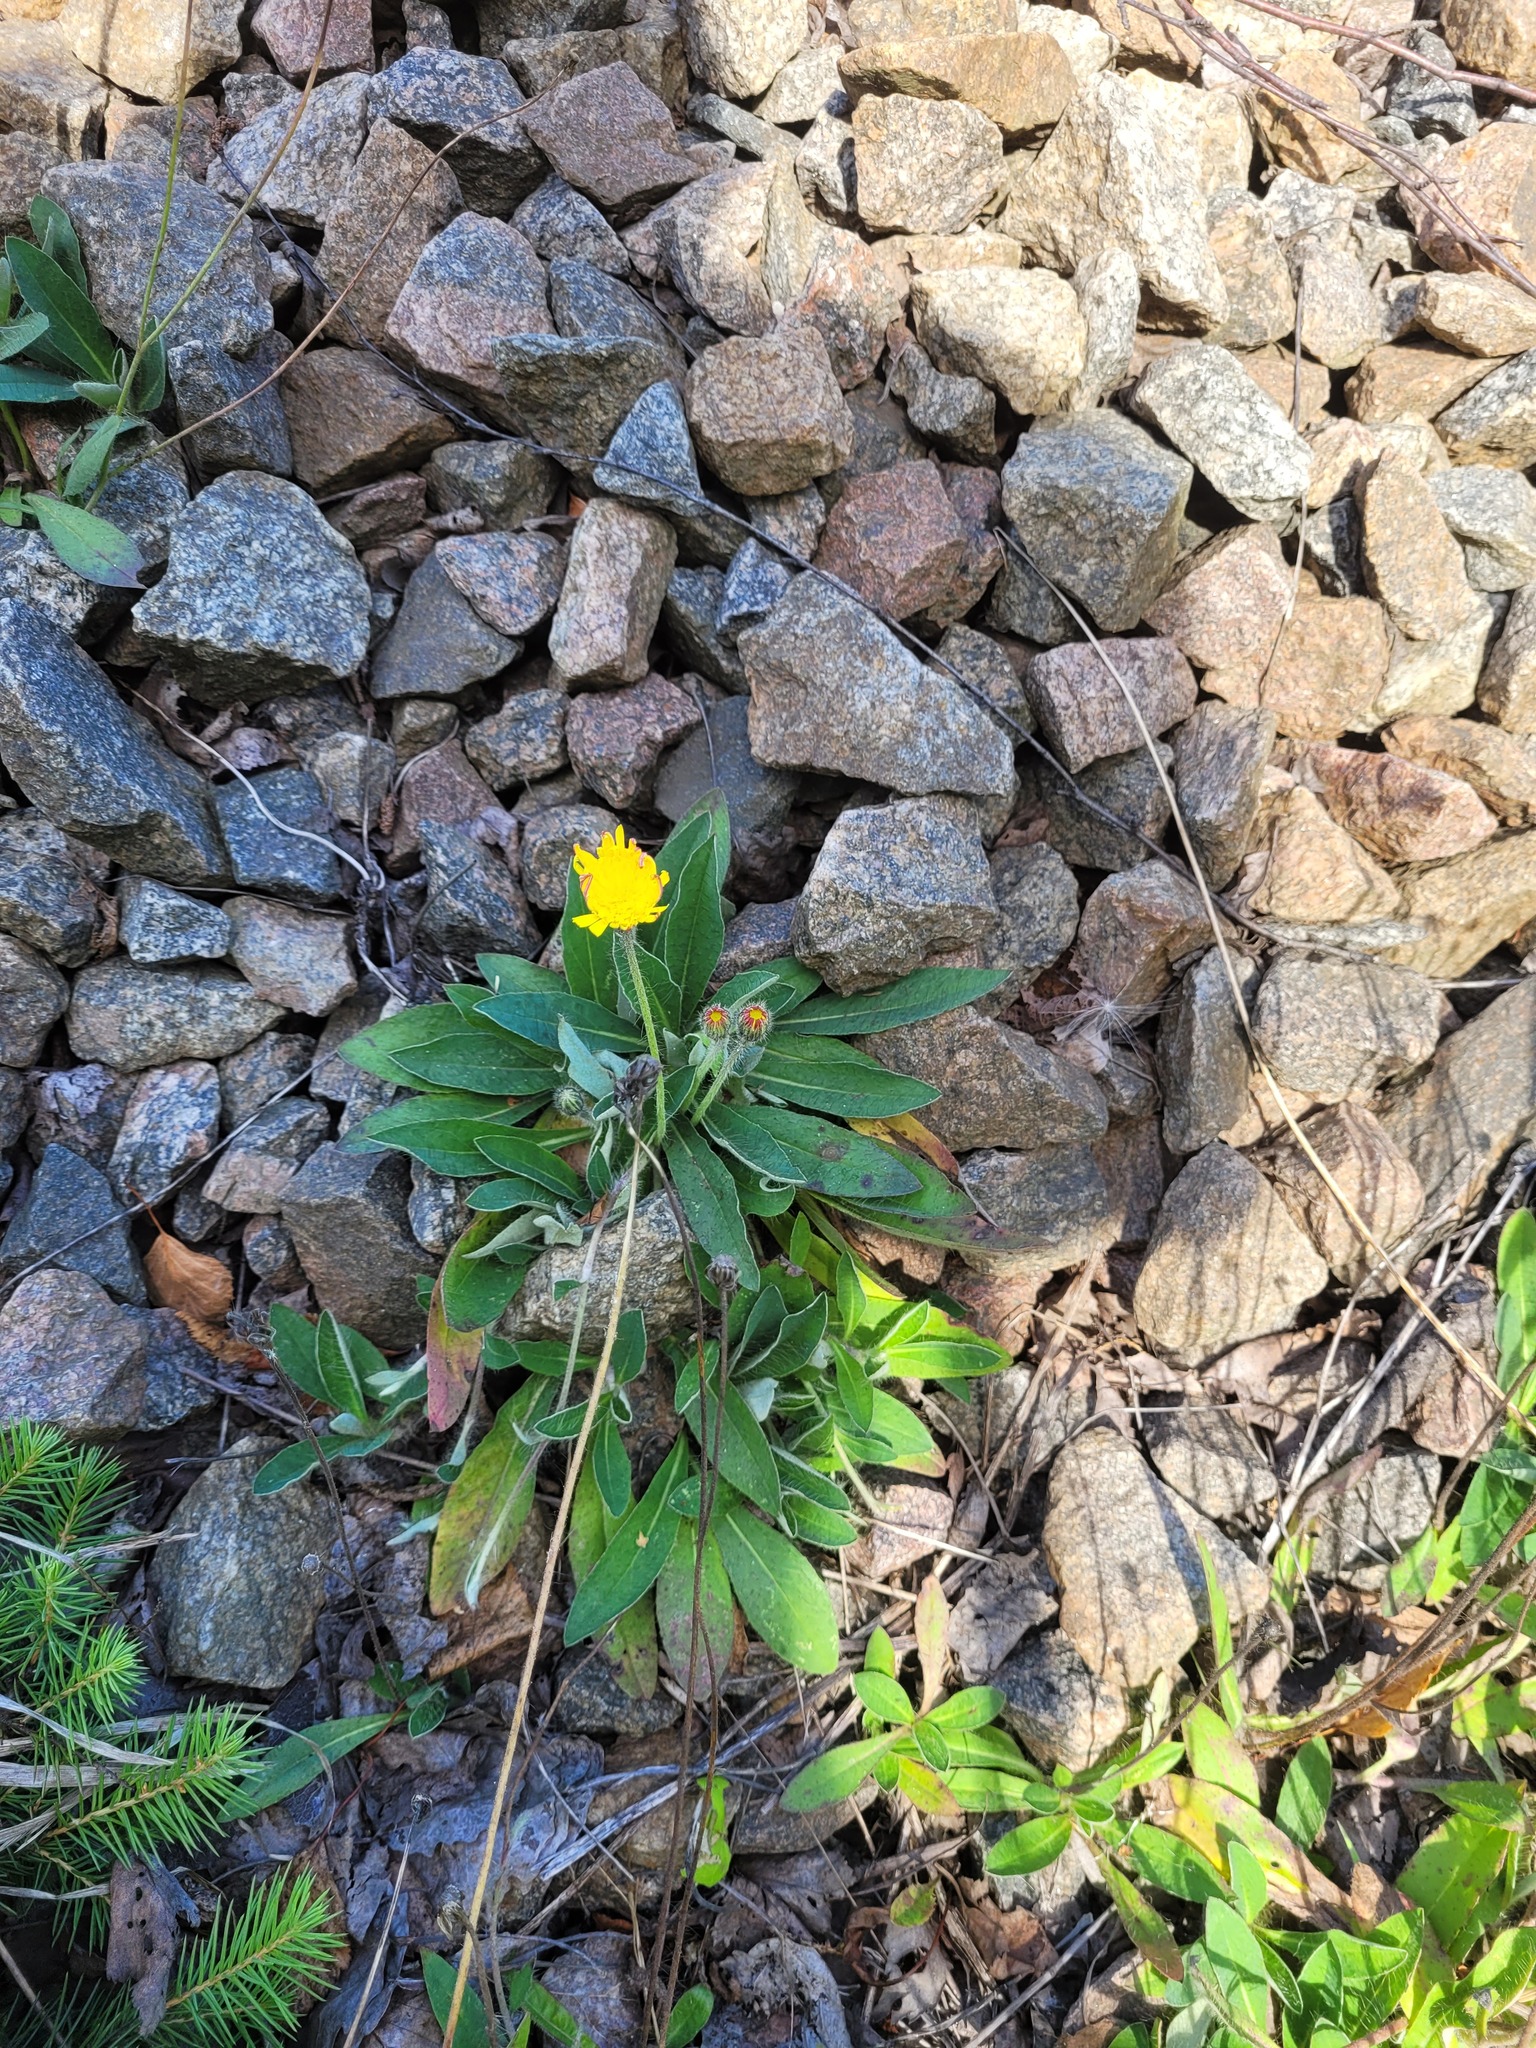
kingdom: Plantae
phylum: Tracheophyta
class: Magnoliopsida
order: Asterales
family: Asteraceae
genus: Pilosella
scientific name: Pilosella officinarum
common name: Mouse-ear hawkweed
